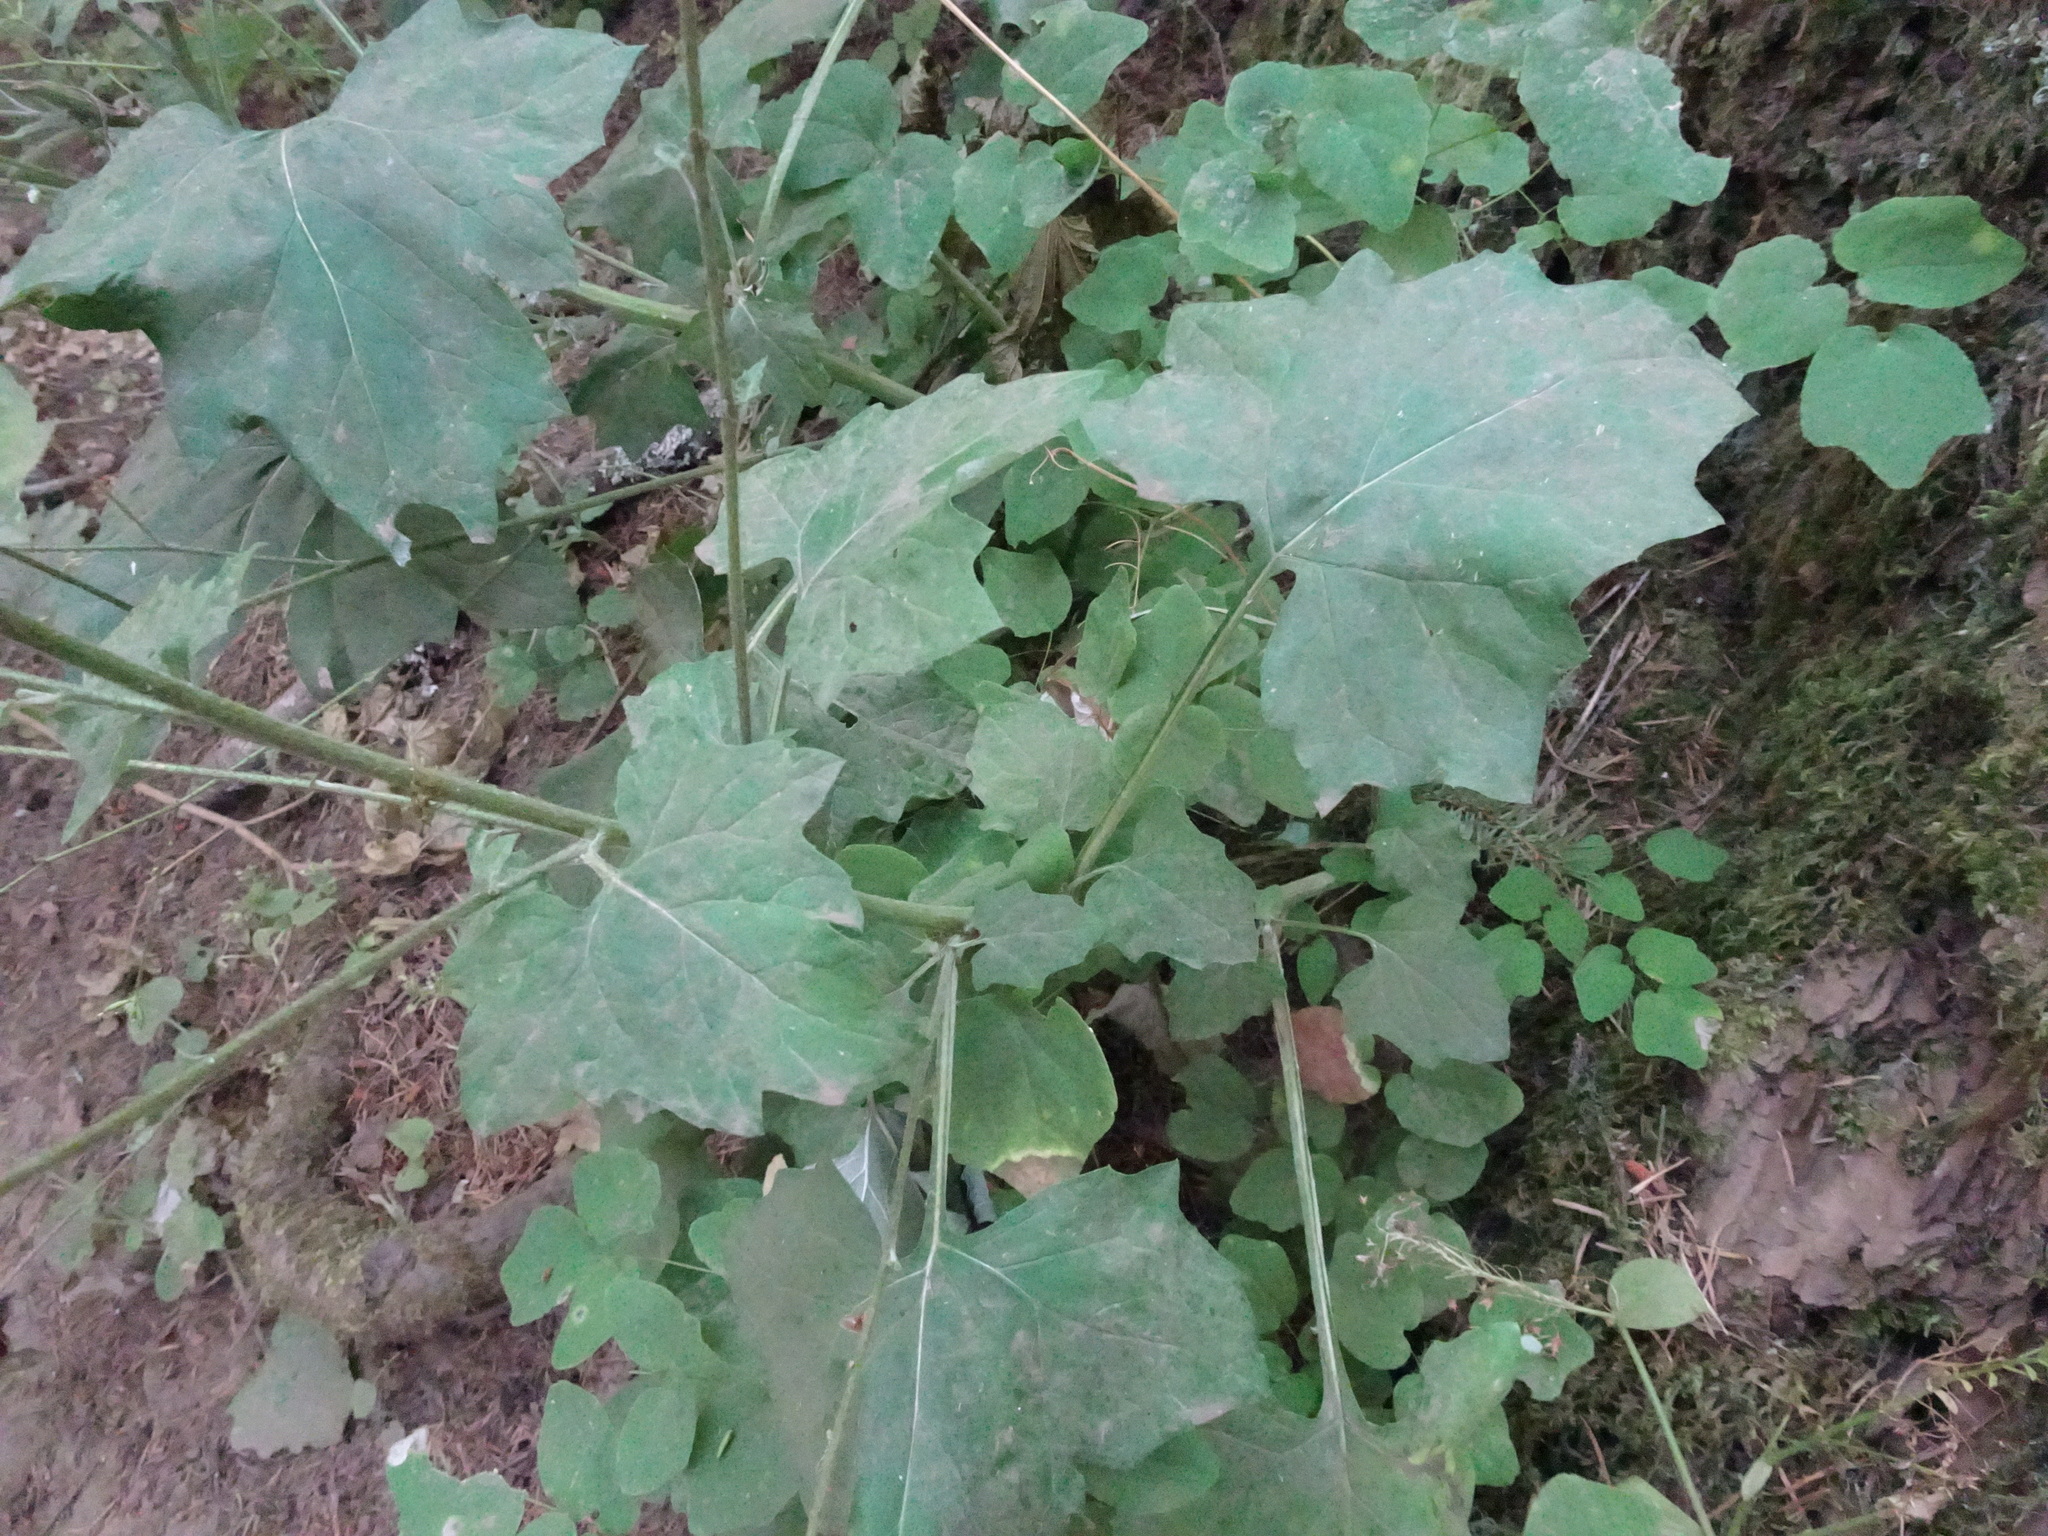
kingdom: Plantae
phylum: Tracheophyta
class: Magnoliopsida
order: Asterales
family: Asteraceae
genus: Adenocaulon
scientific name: Adenocaulon bicolor
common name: Trailplant
